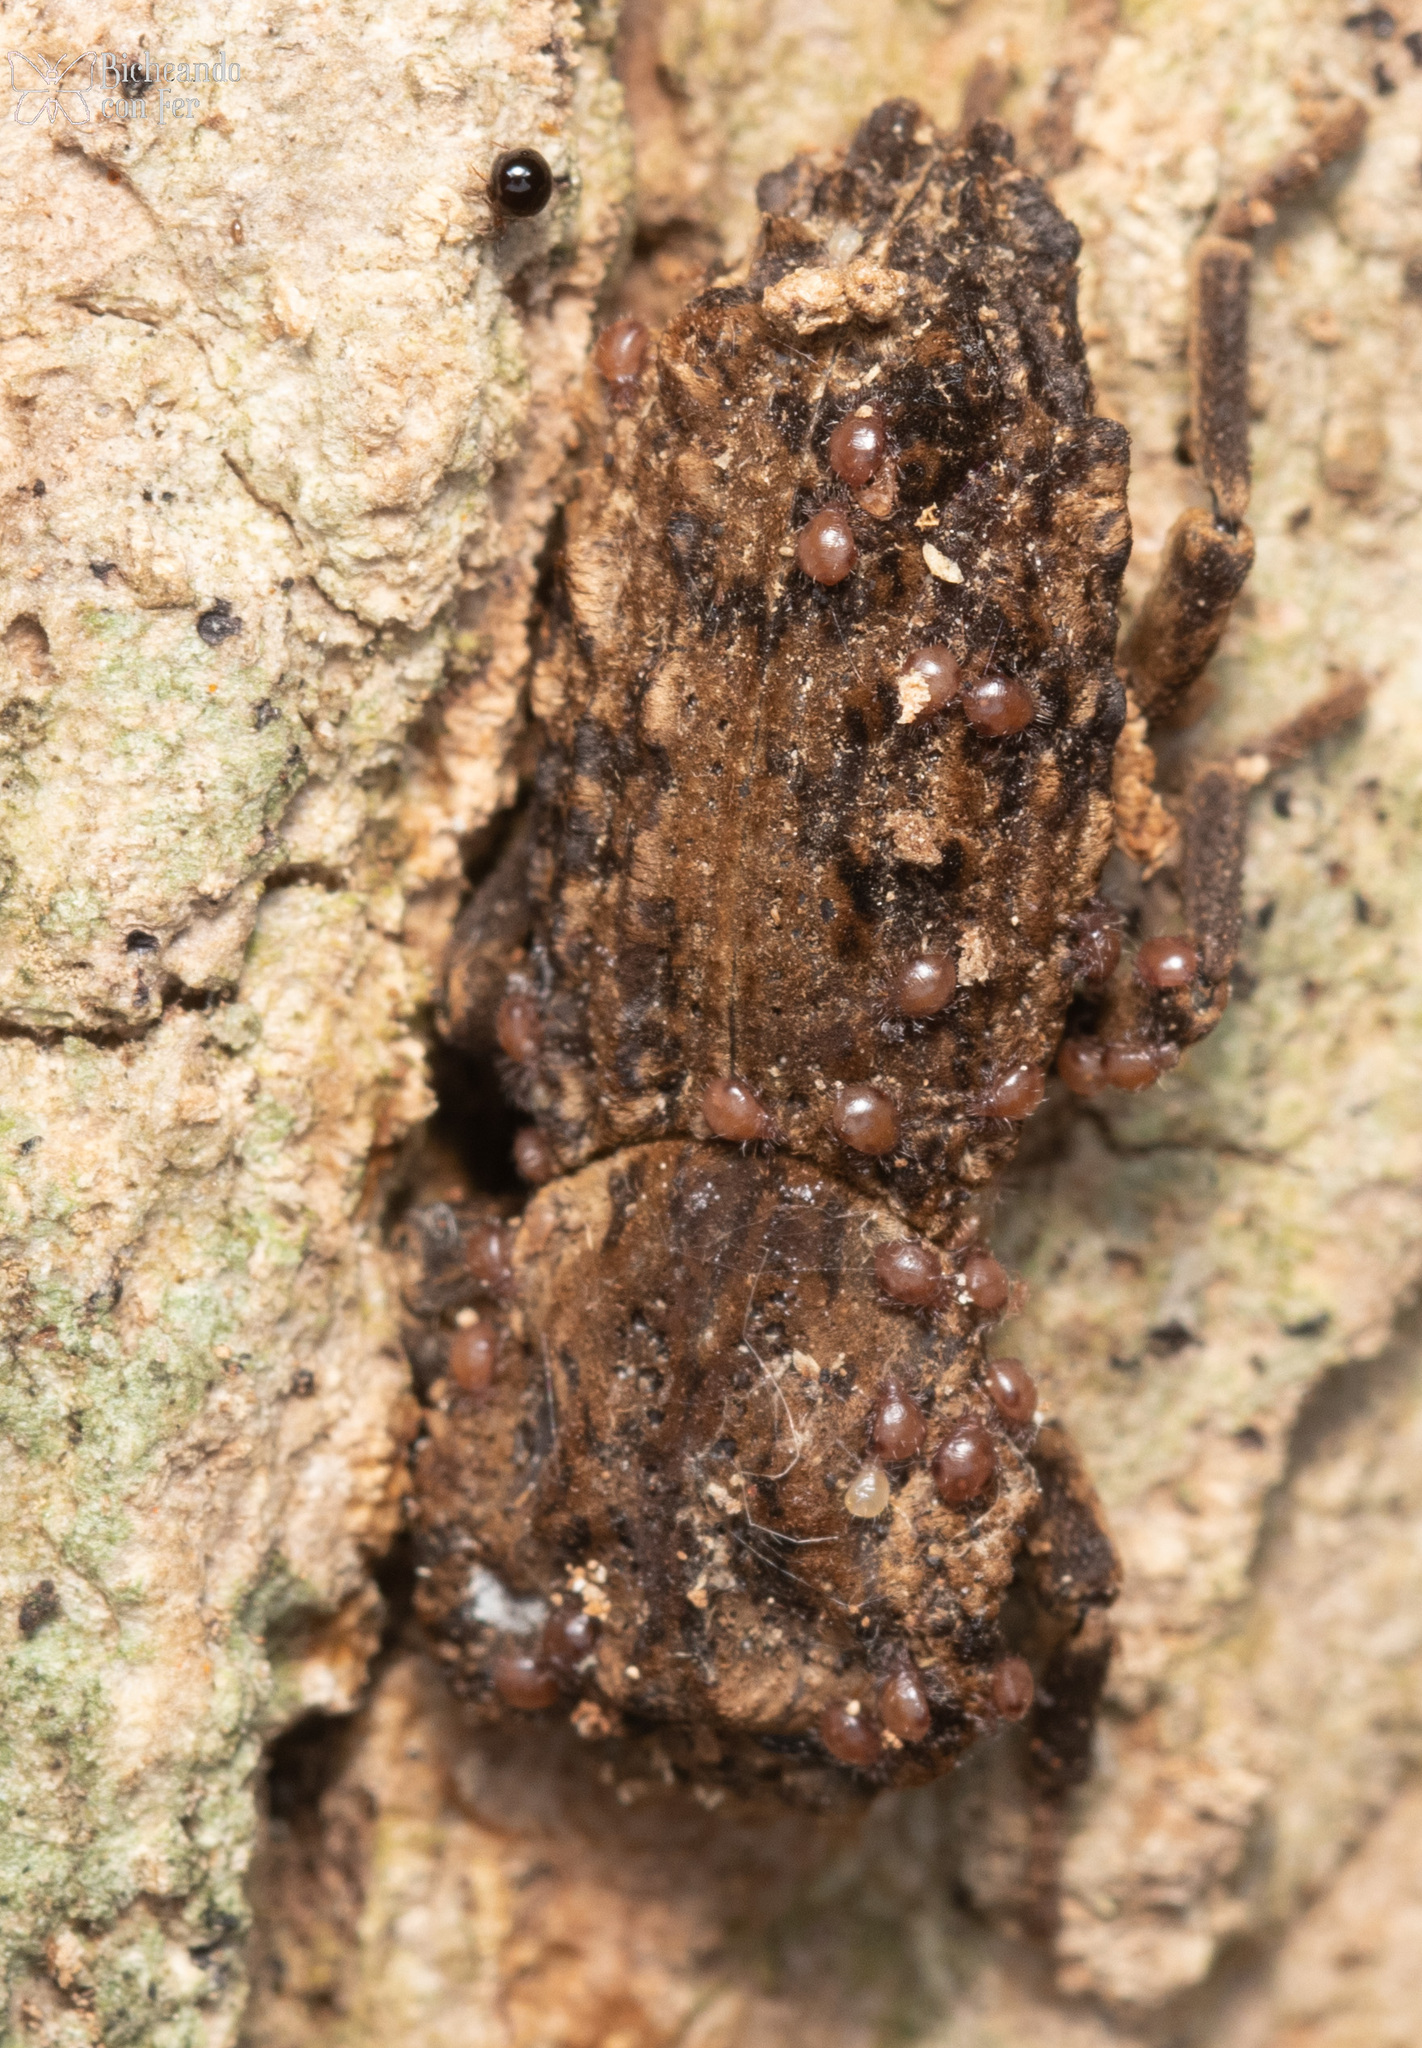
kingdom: Animalia
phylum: Arthropoda
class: Insecta
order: Coleoptera
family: Zopheridae
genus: Sesaspis
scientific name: Sesaspis
